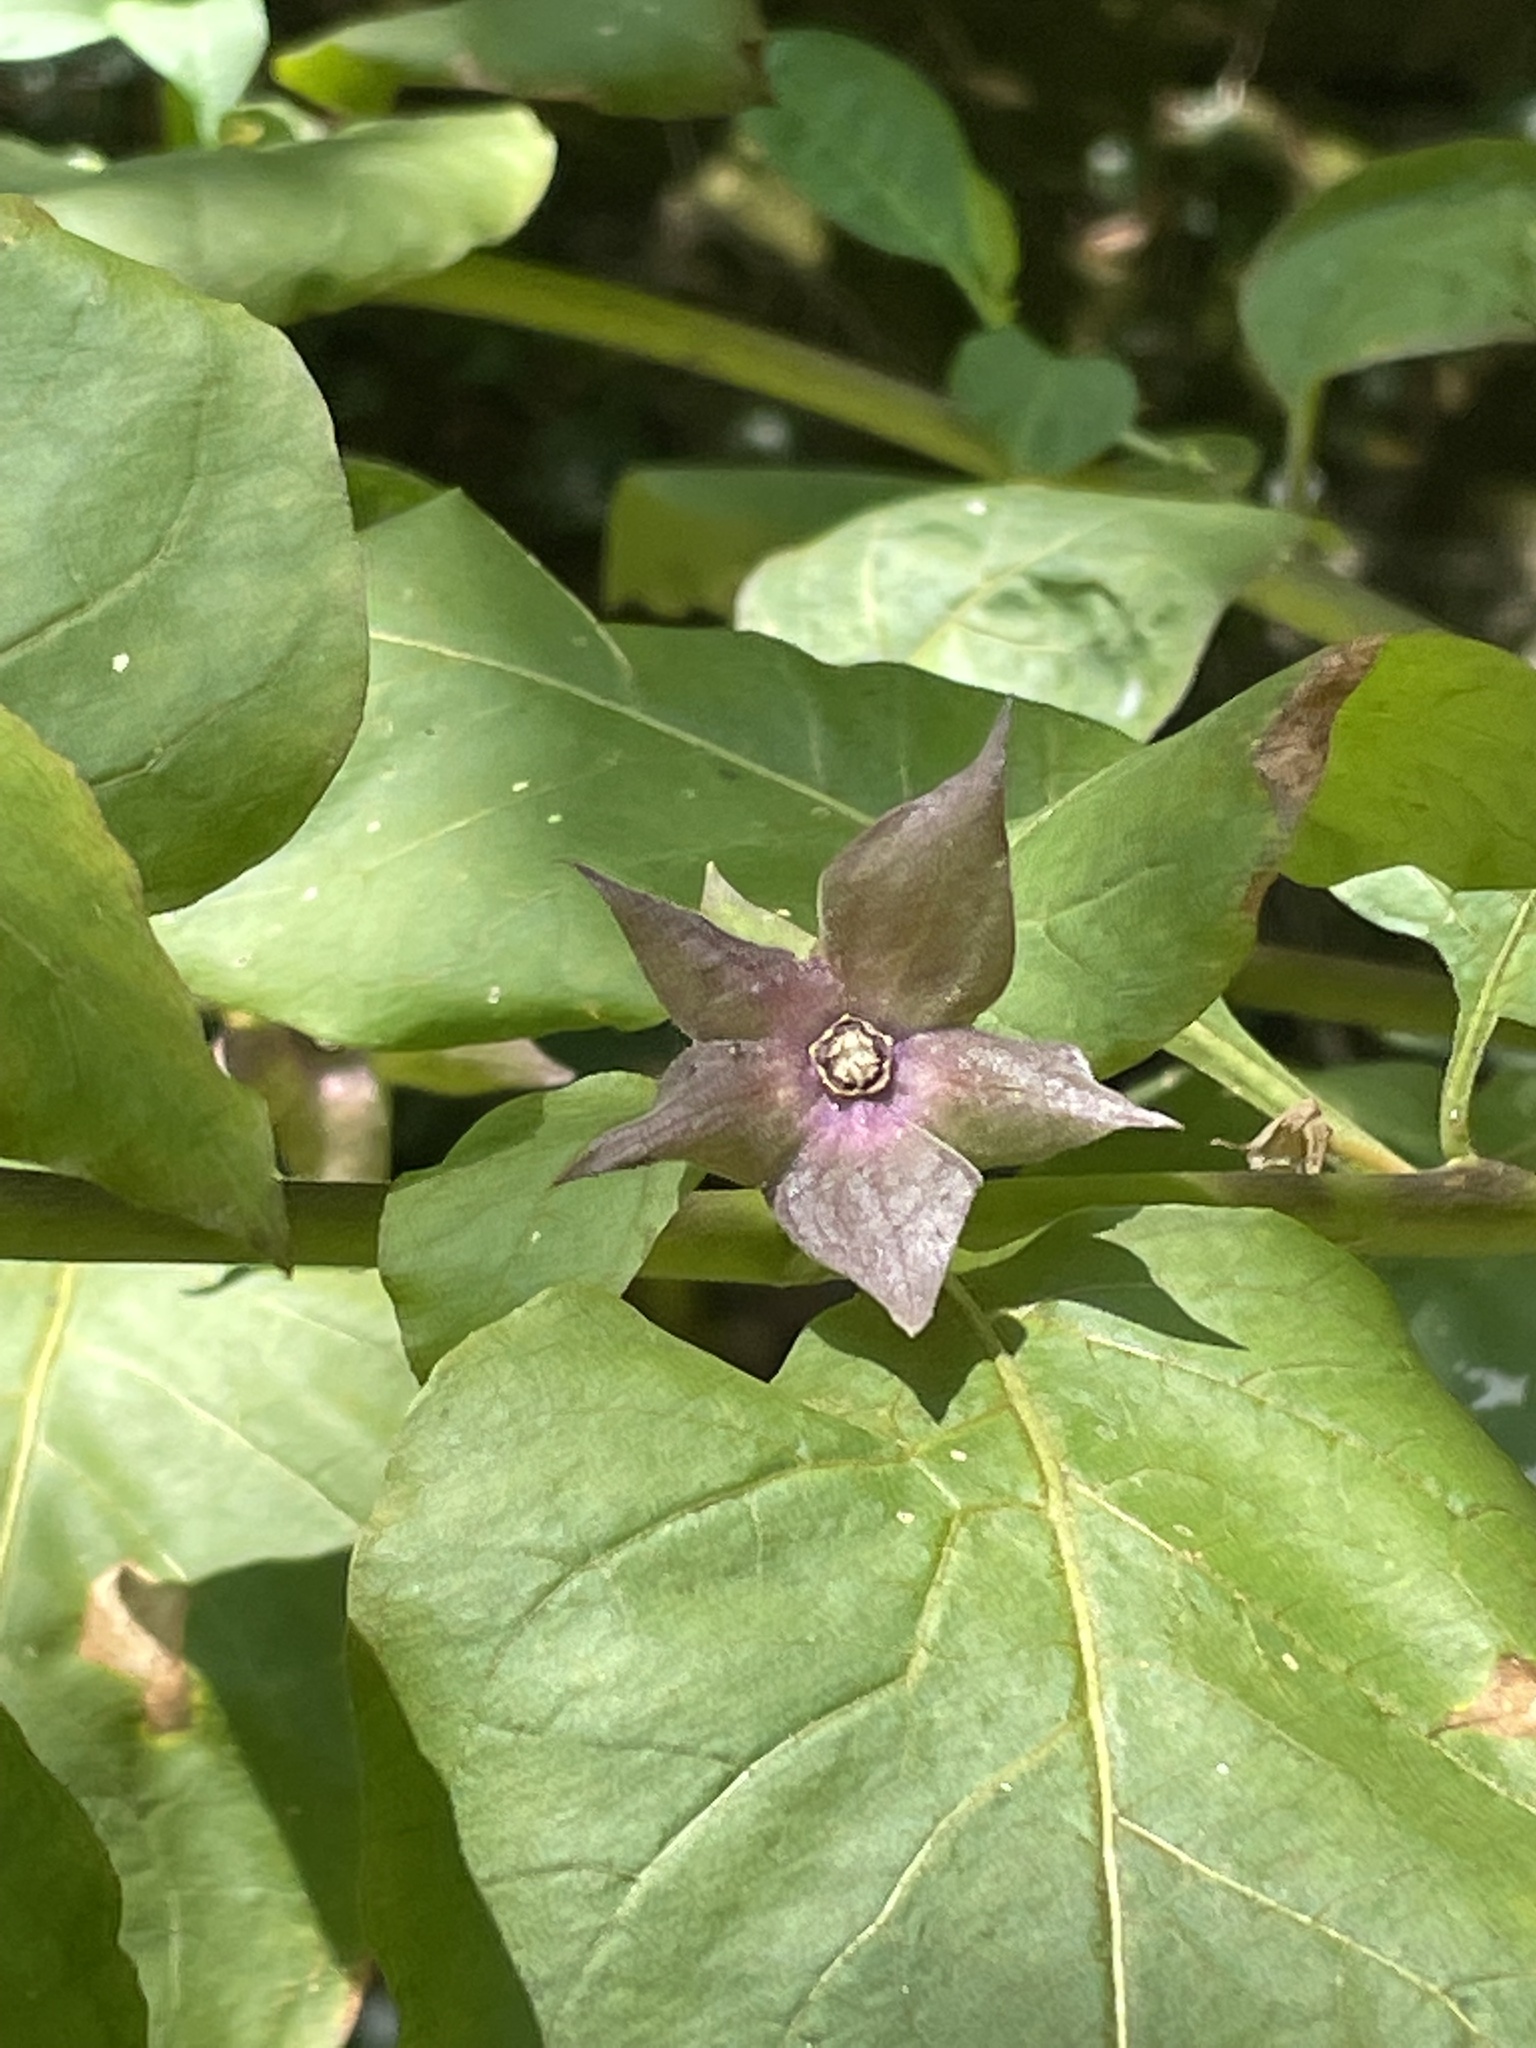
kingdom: Plantae
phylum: Tracheophyta
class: Magnoliopsida
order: Solanales
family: Solanaceae
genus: Atropa
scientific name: Atropa belladonna
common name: Deadly nightshade
